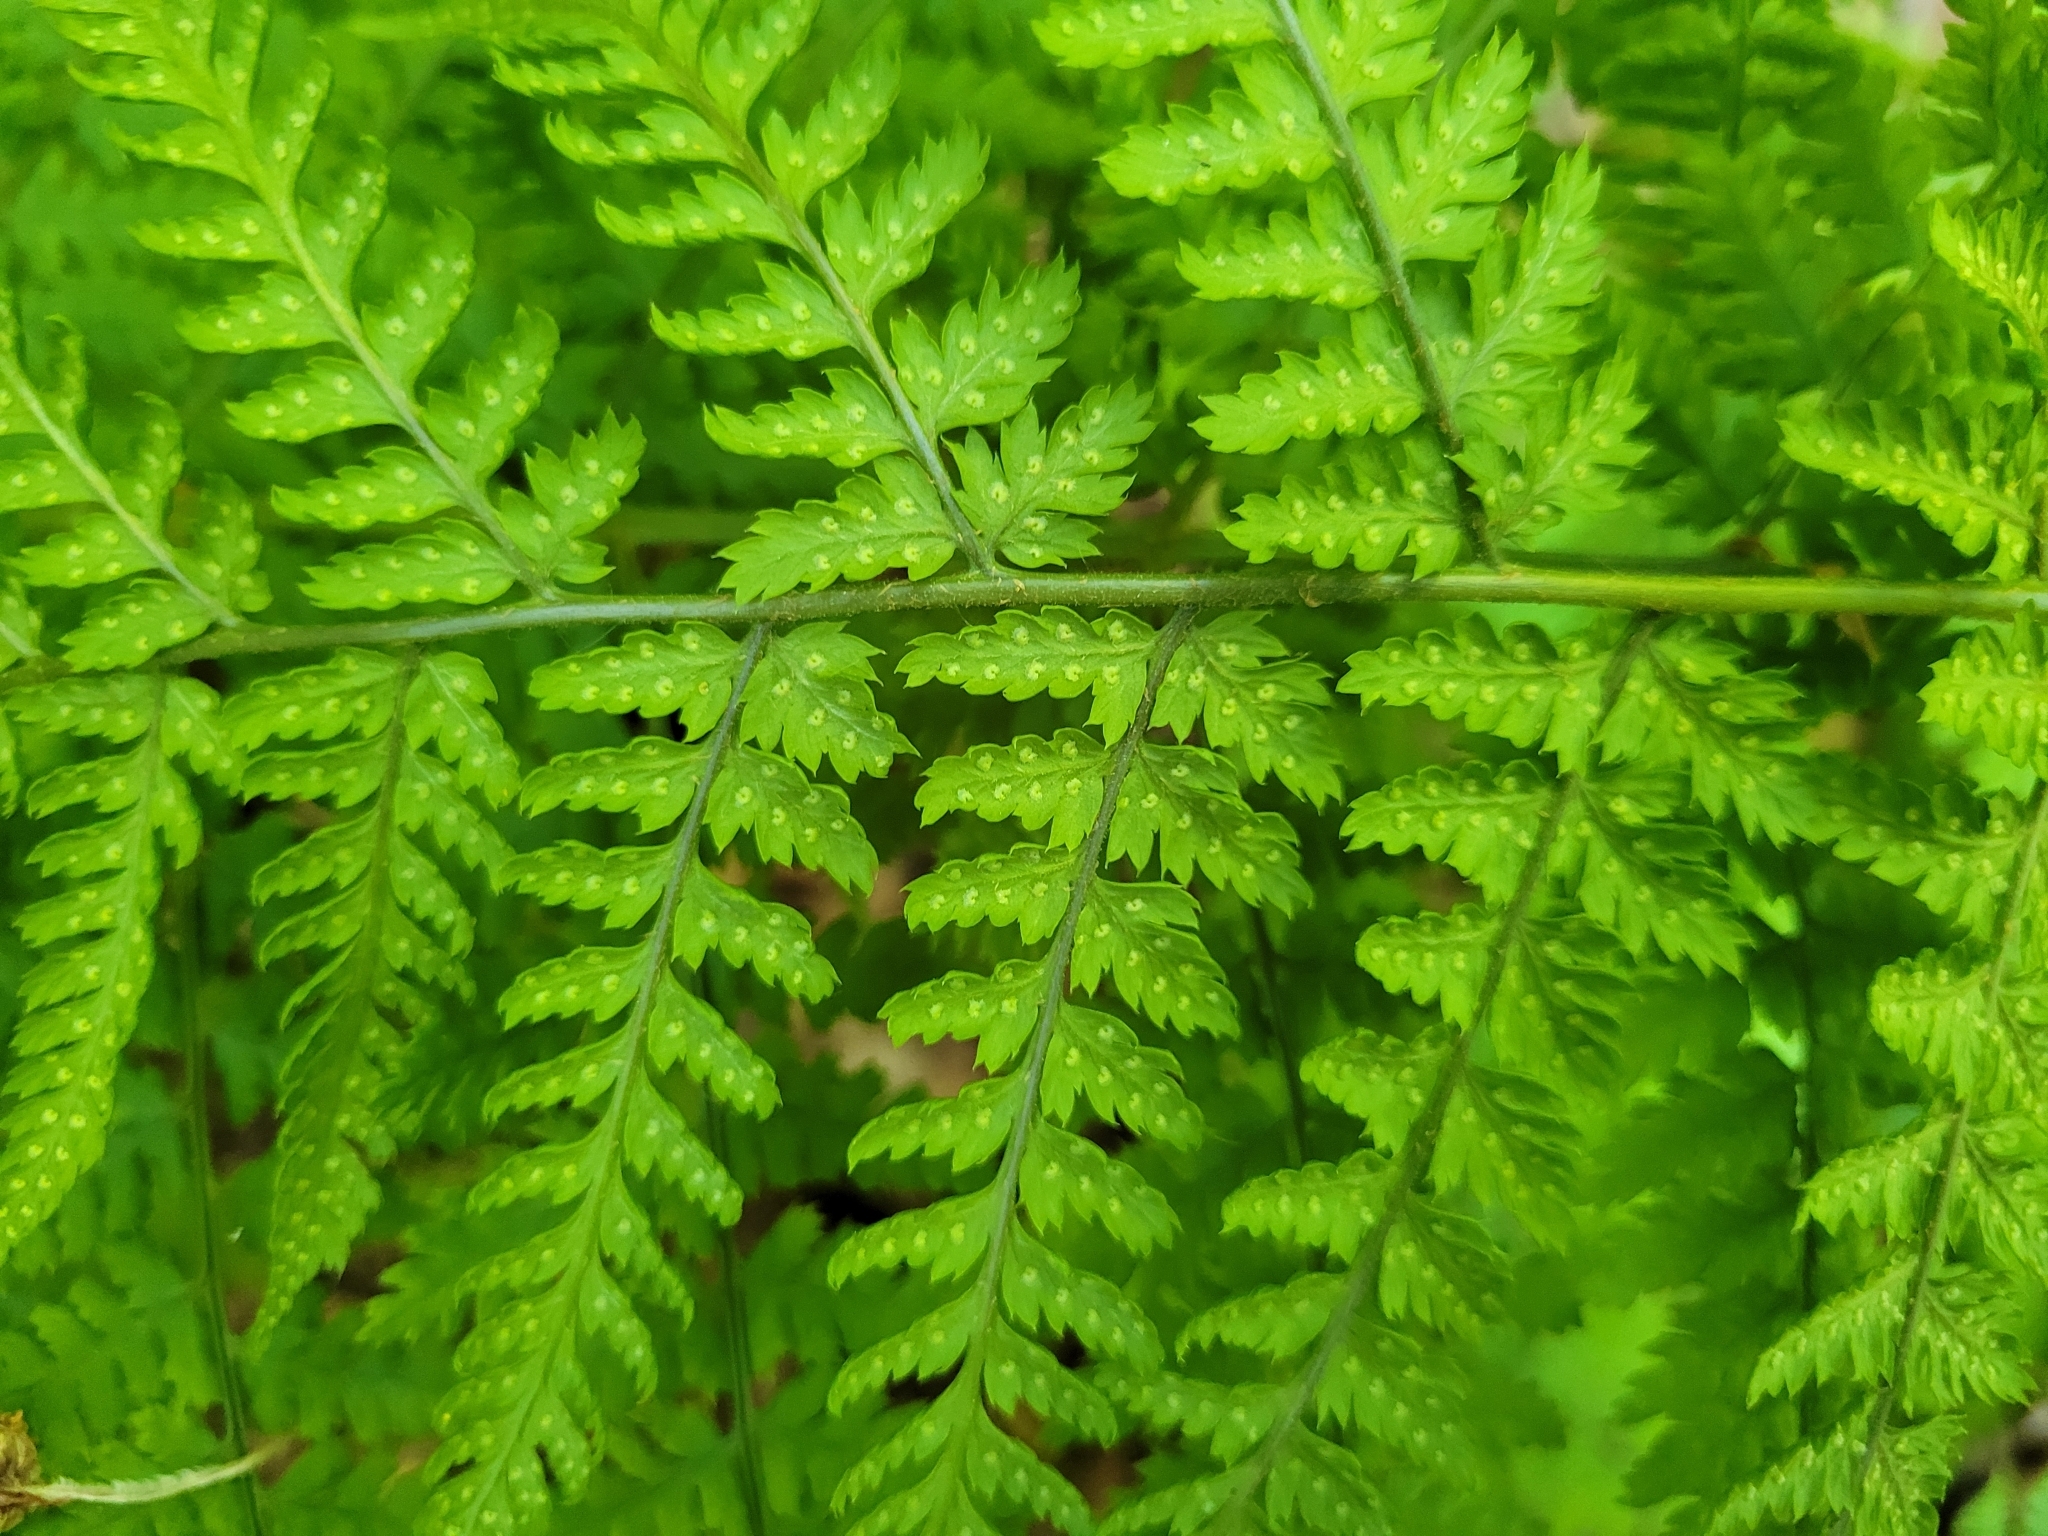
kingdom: Plantae
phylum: Tracheophyta
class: Polypodiopsida
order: Polypodiales
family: Dryopteridaceae
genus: Dryopteris
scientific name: Dryopteris dilatata
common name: Broad buckler-fern
